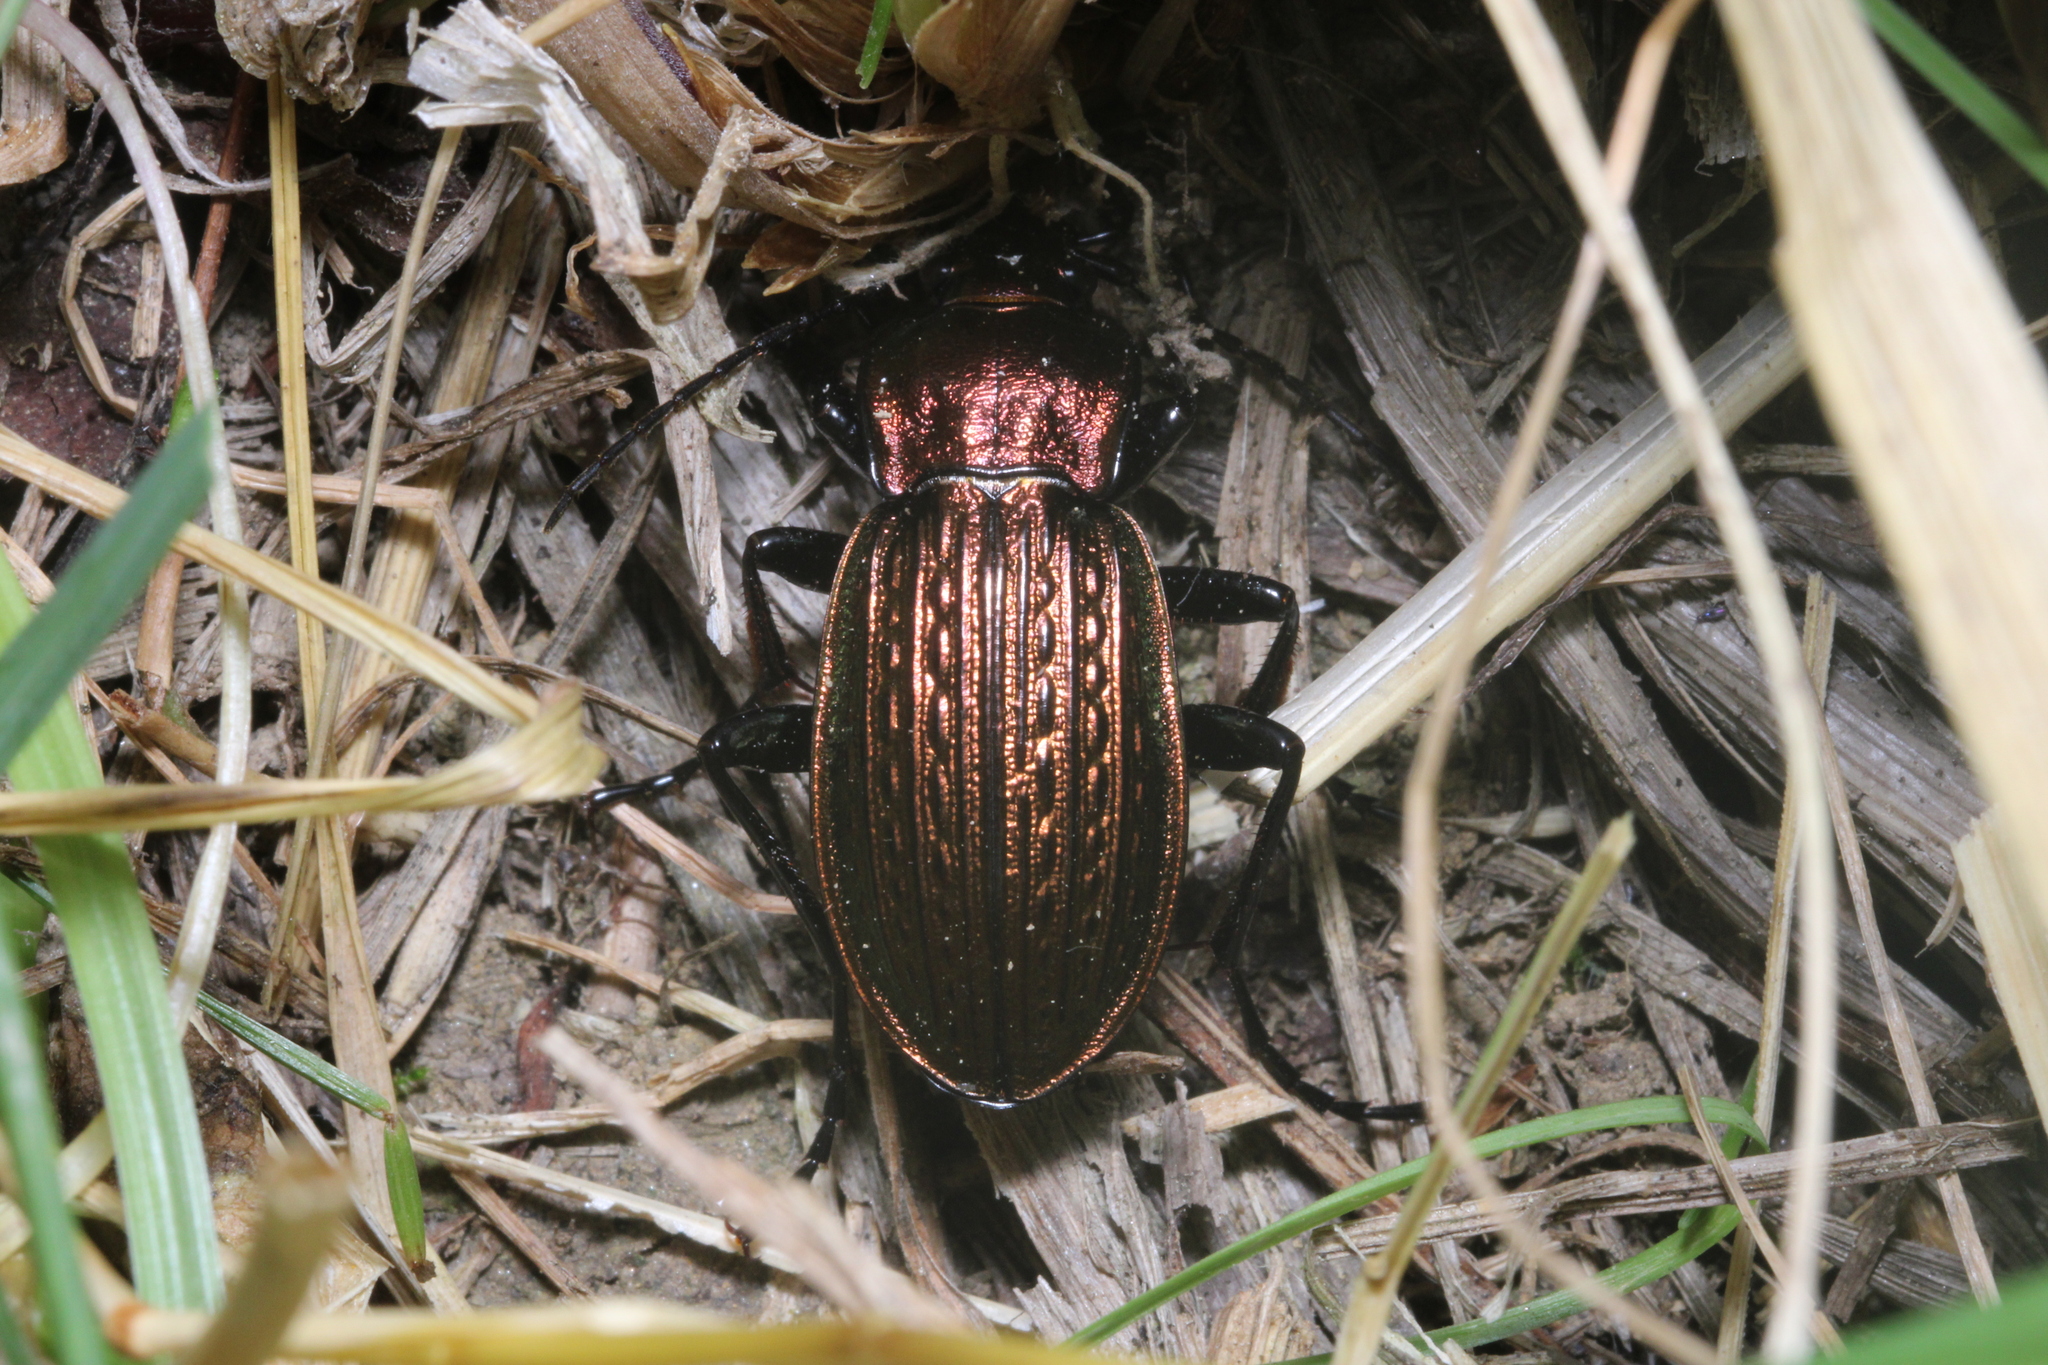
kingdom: Animalia
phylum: Arthropoda
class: Insecta
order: Coleoptera
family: Carabidae
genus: Carabus
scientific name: Carabus ulrichii
